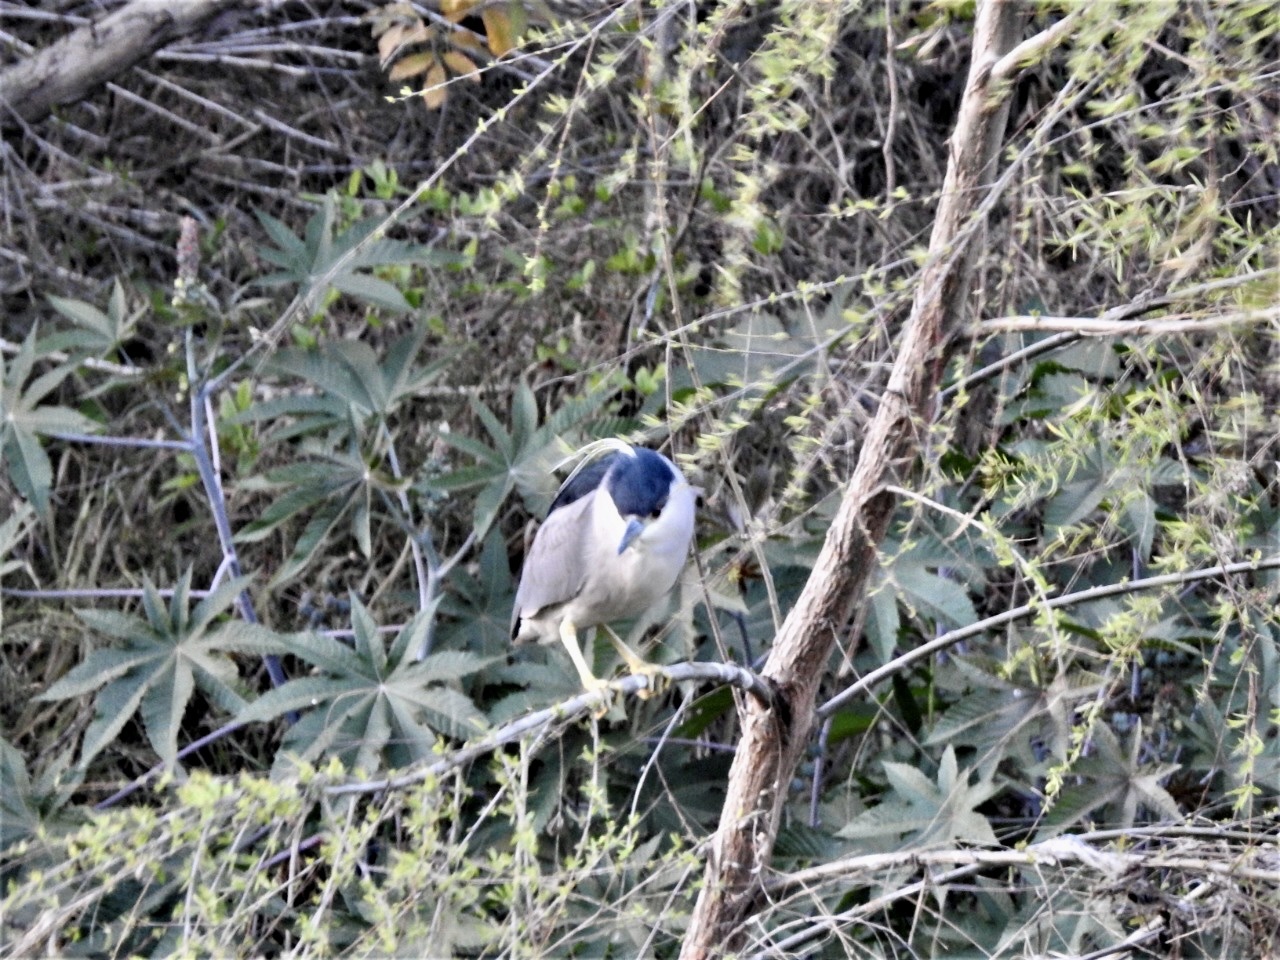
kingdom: Animalia
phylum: Chordata
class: Aves
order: Pelecaniformes
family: Ardeidae
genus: Nycticorax
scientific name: Nycticorax nycticorax
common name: Black-crowned night heron
